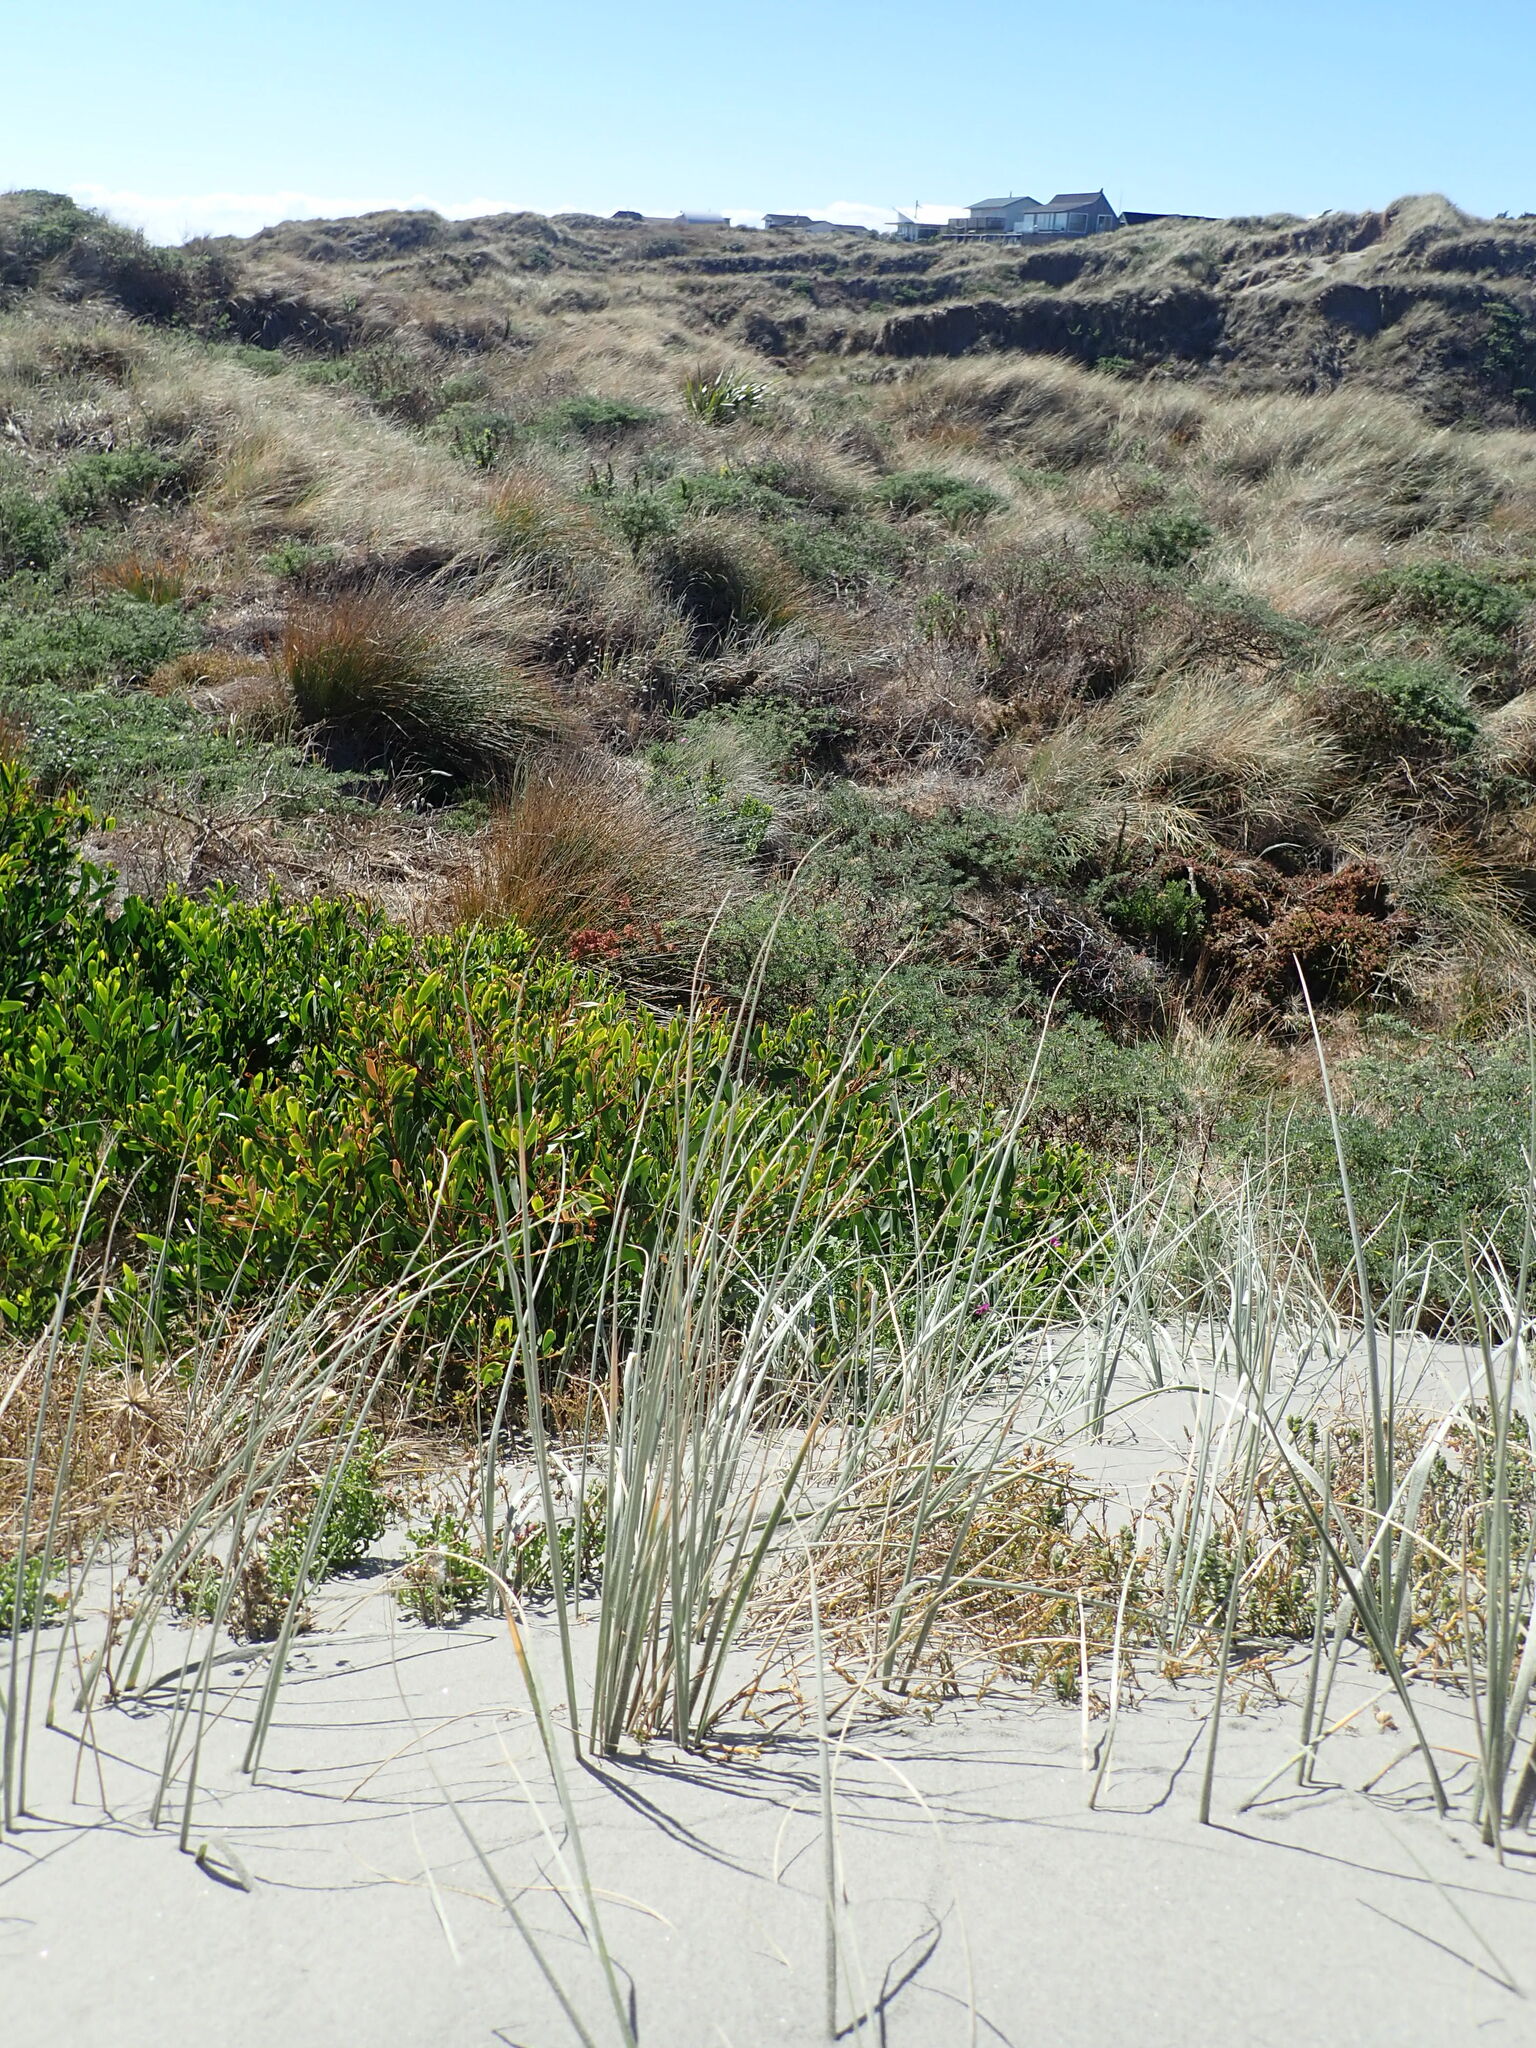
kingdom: Plantae
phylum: Tracheophyta
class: Magnoliopsida
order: Fabales
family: Fabaceae
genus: Acacia
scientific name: Acacia longifolia
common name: Sydney golden wattle
